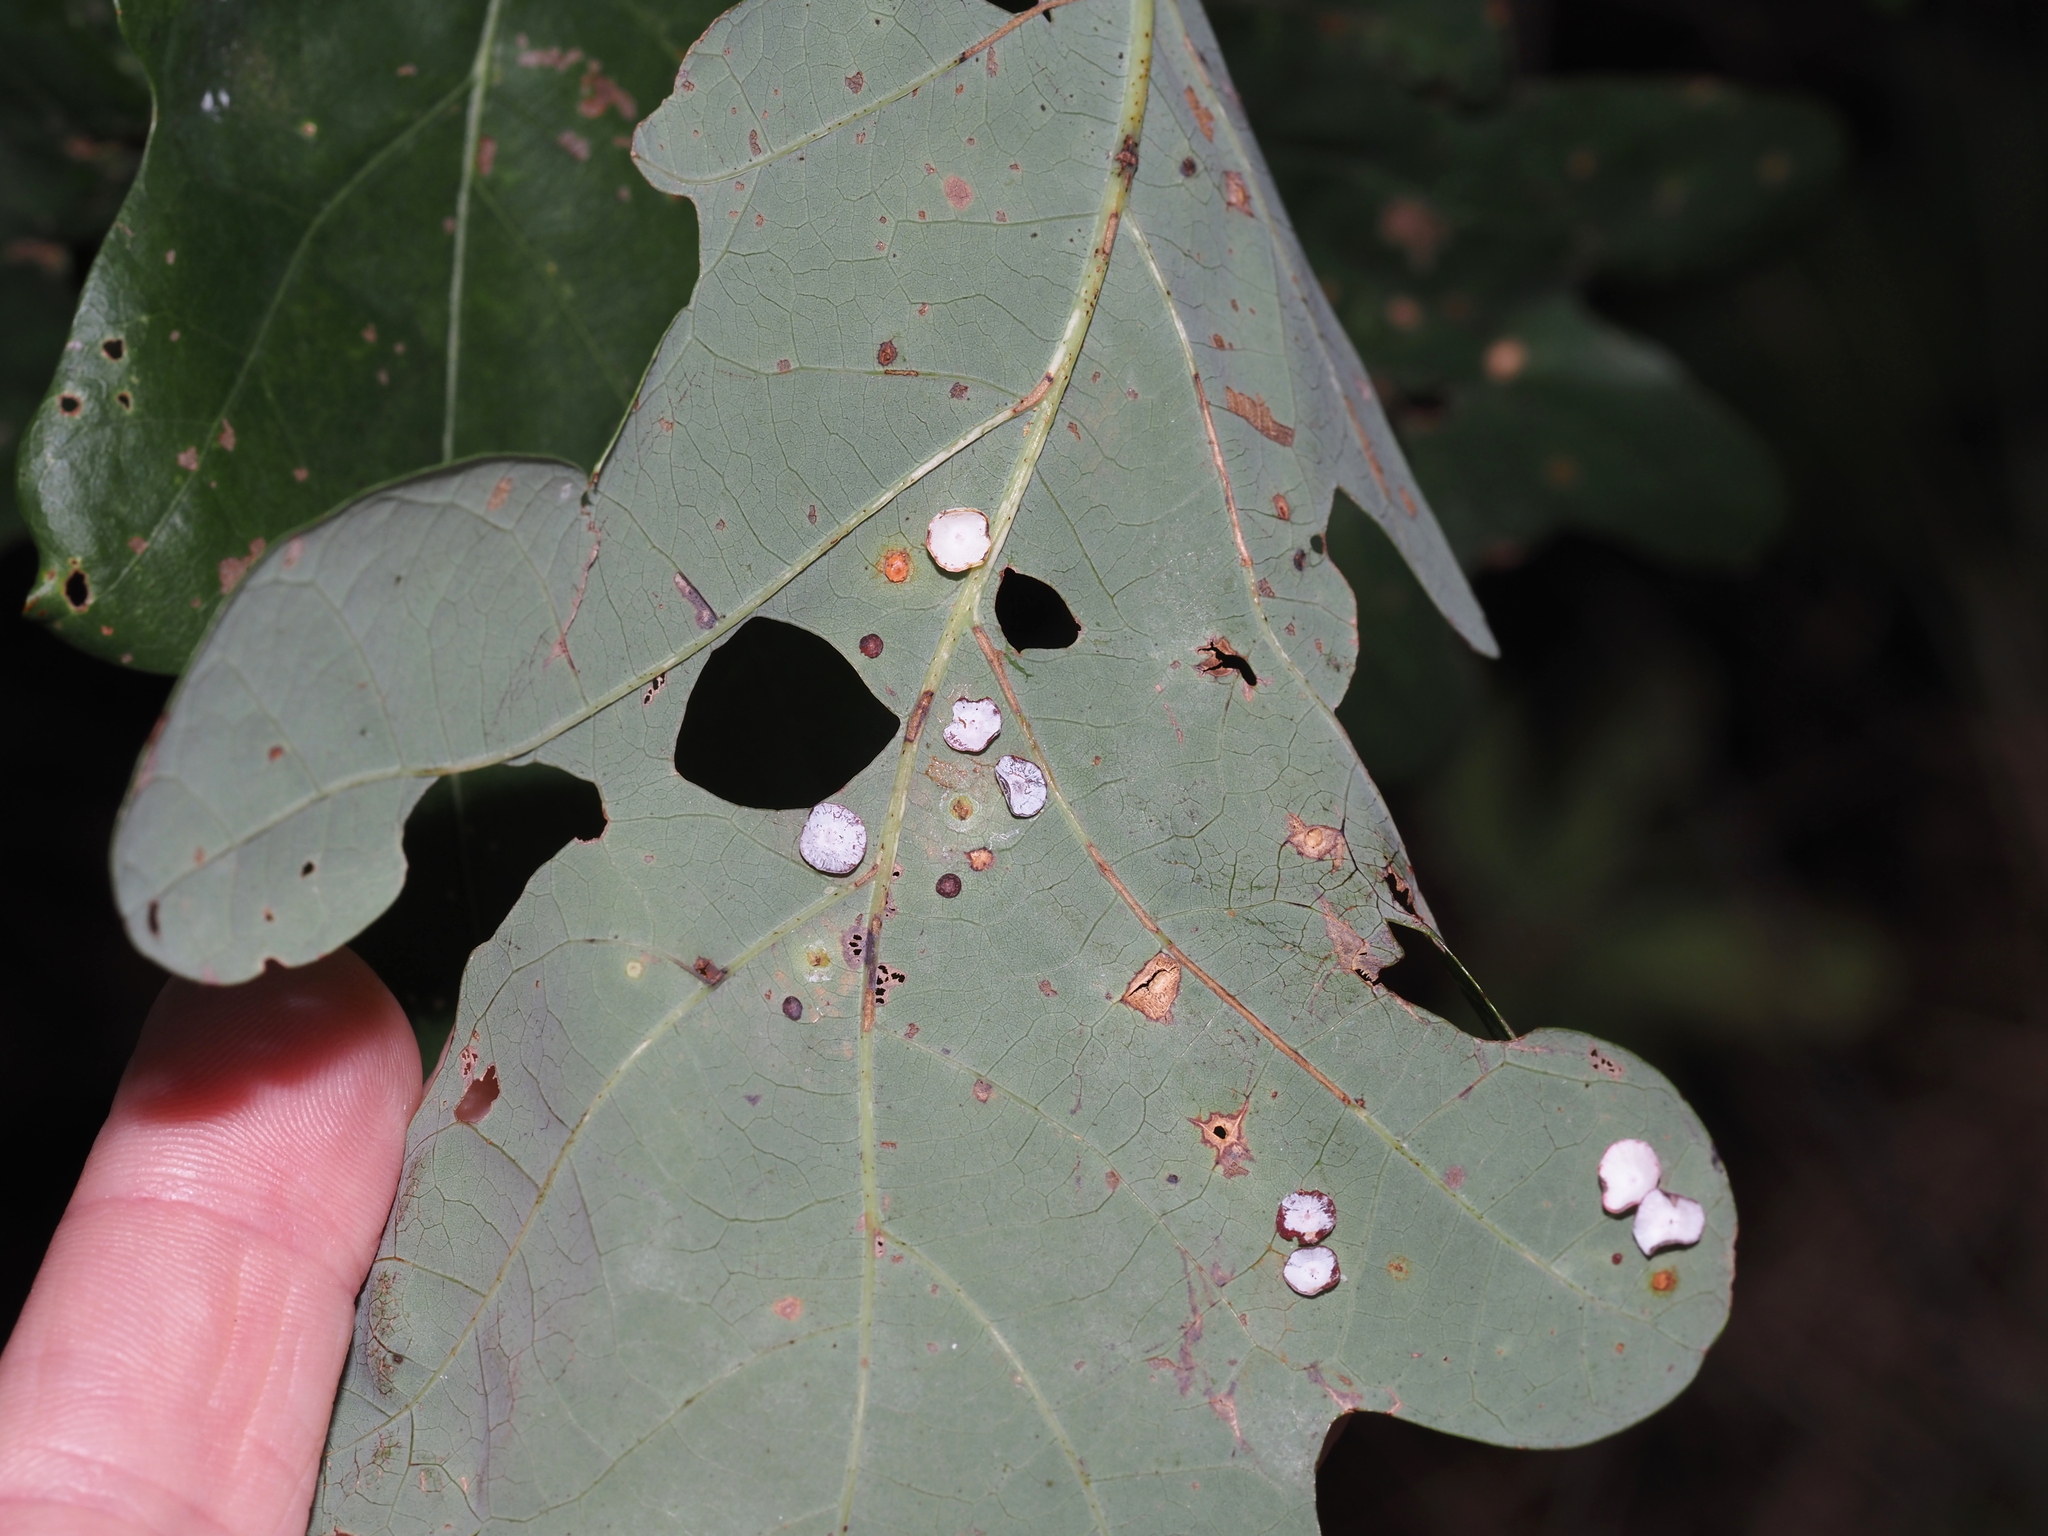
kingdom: Animalia
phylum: Arthropoda
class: Insecta
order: Hymenoptera
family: Cynipidae
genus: Phylloteras
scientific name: Phylloteras poculum
